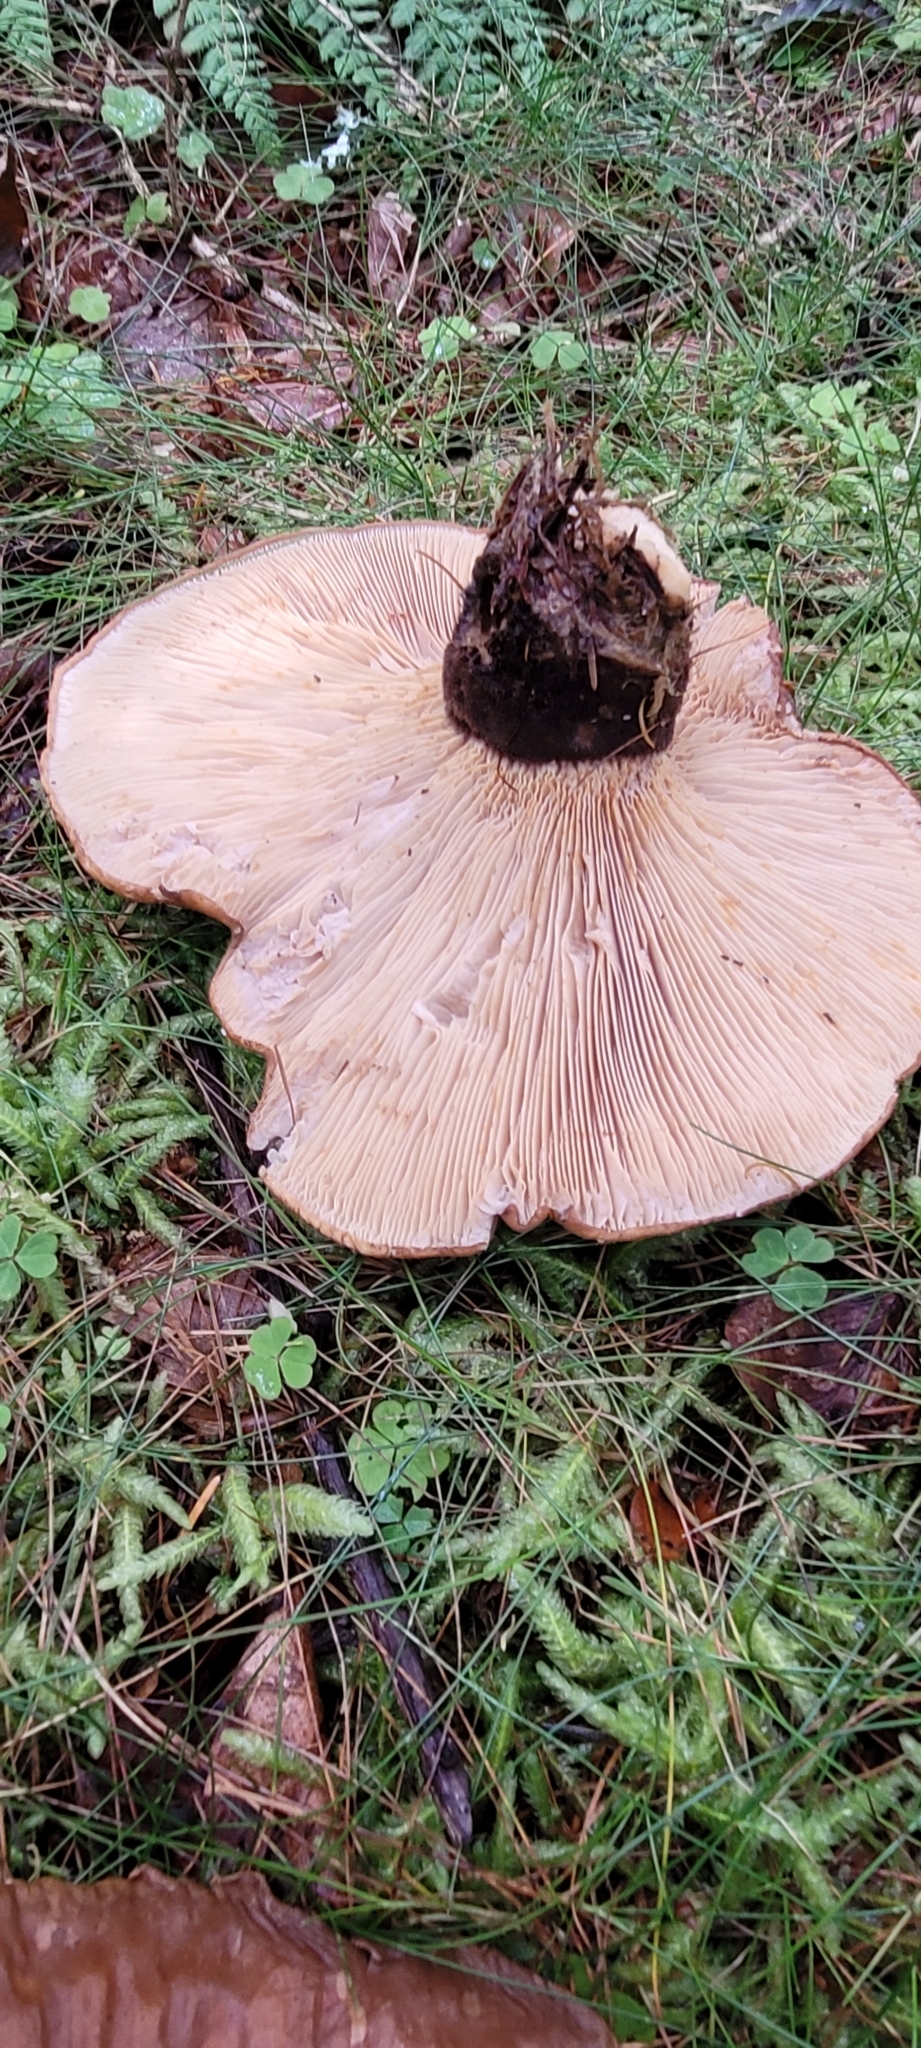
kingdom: Fungi
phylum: Basidiomycota
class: Agaricomycetes
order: Boletales
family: Tapinellaceae
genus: Tapinella
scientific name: Tapinella atrotomentosa
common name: Velvet rollrim
